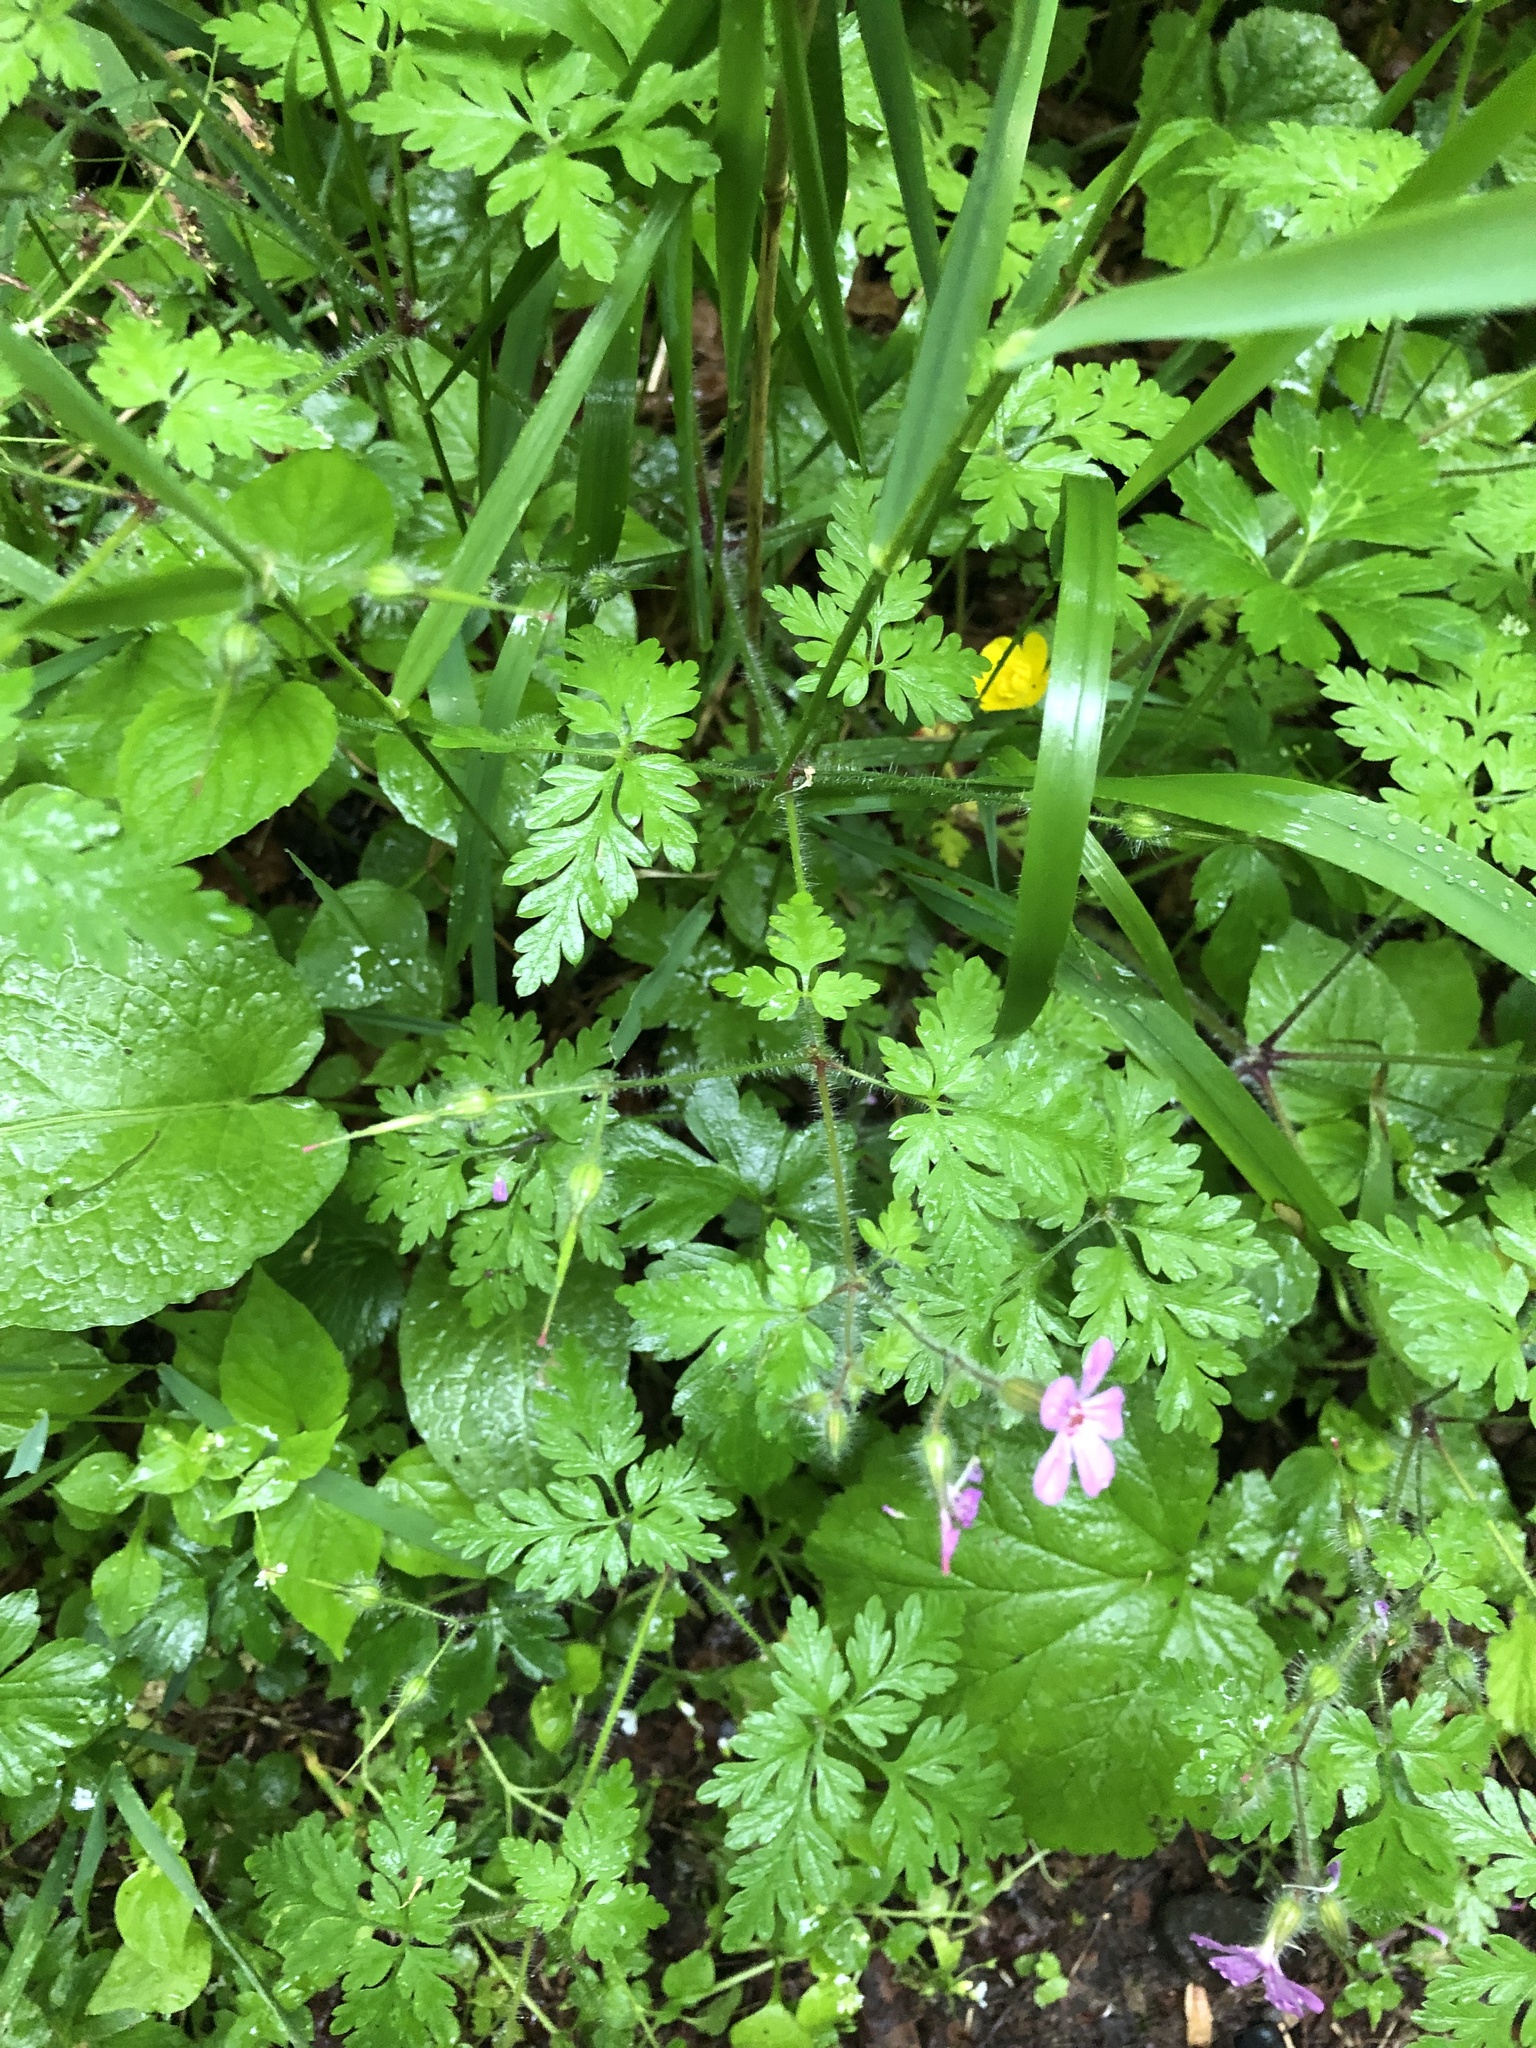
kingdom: Plantae
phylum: Tracheophyta
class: Magnoliopsida
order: Geraniales
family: Geraniaceae
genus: Geranium
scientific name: Geranium robertianum
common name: Herb-robert
